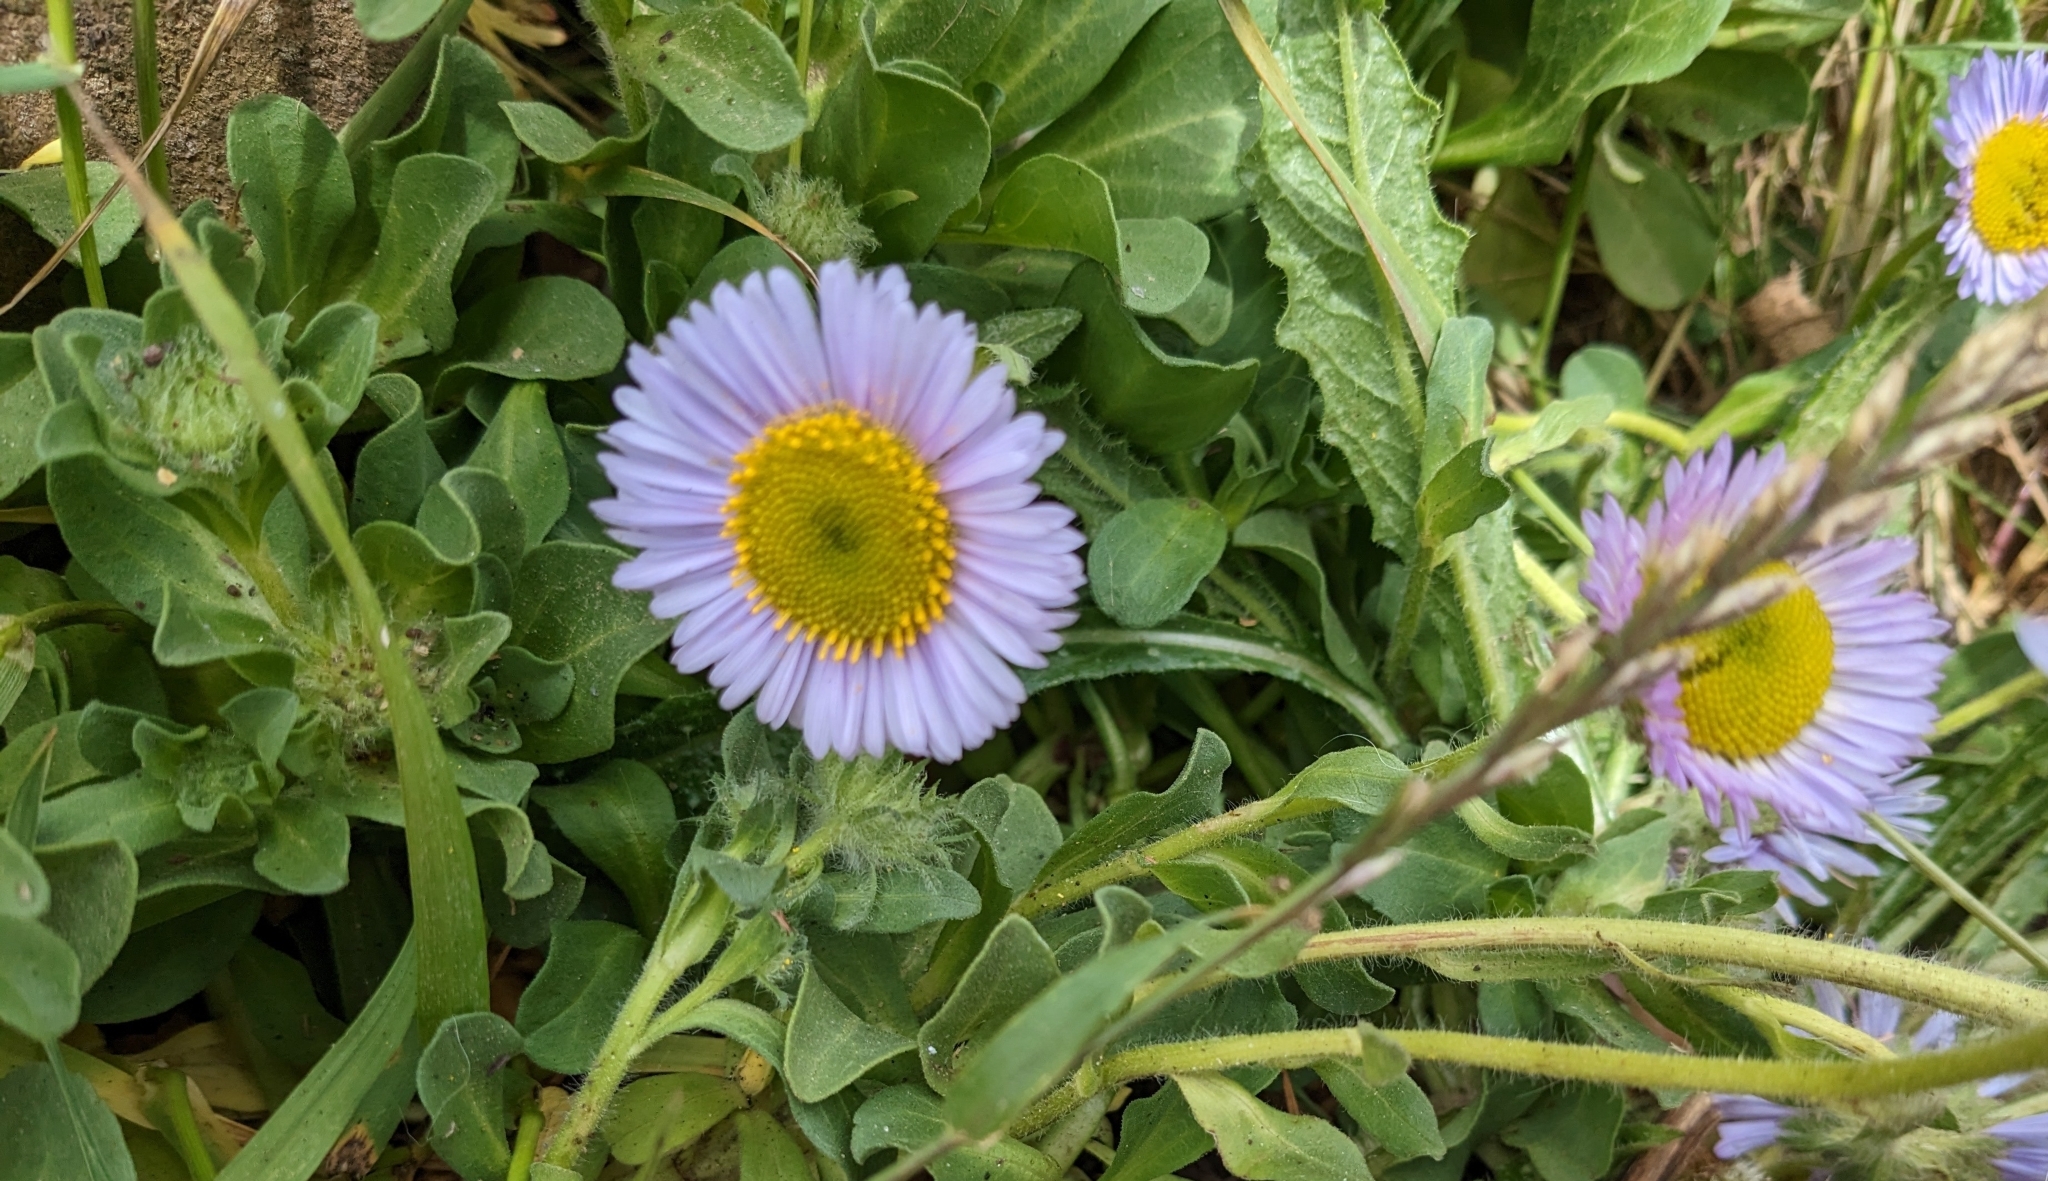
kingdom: Plantae
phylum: Tracheophyta
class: Magnoliopsida
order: Asterales
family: Asteraceae
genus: Erigeron
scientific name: Erigeron glaucus
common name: Seaside daisy
